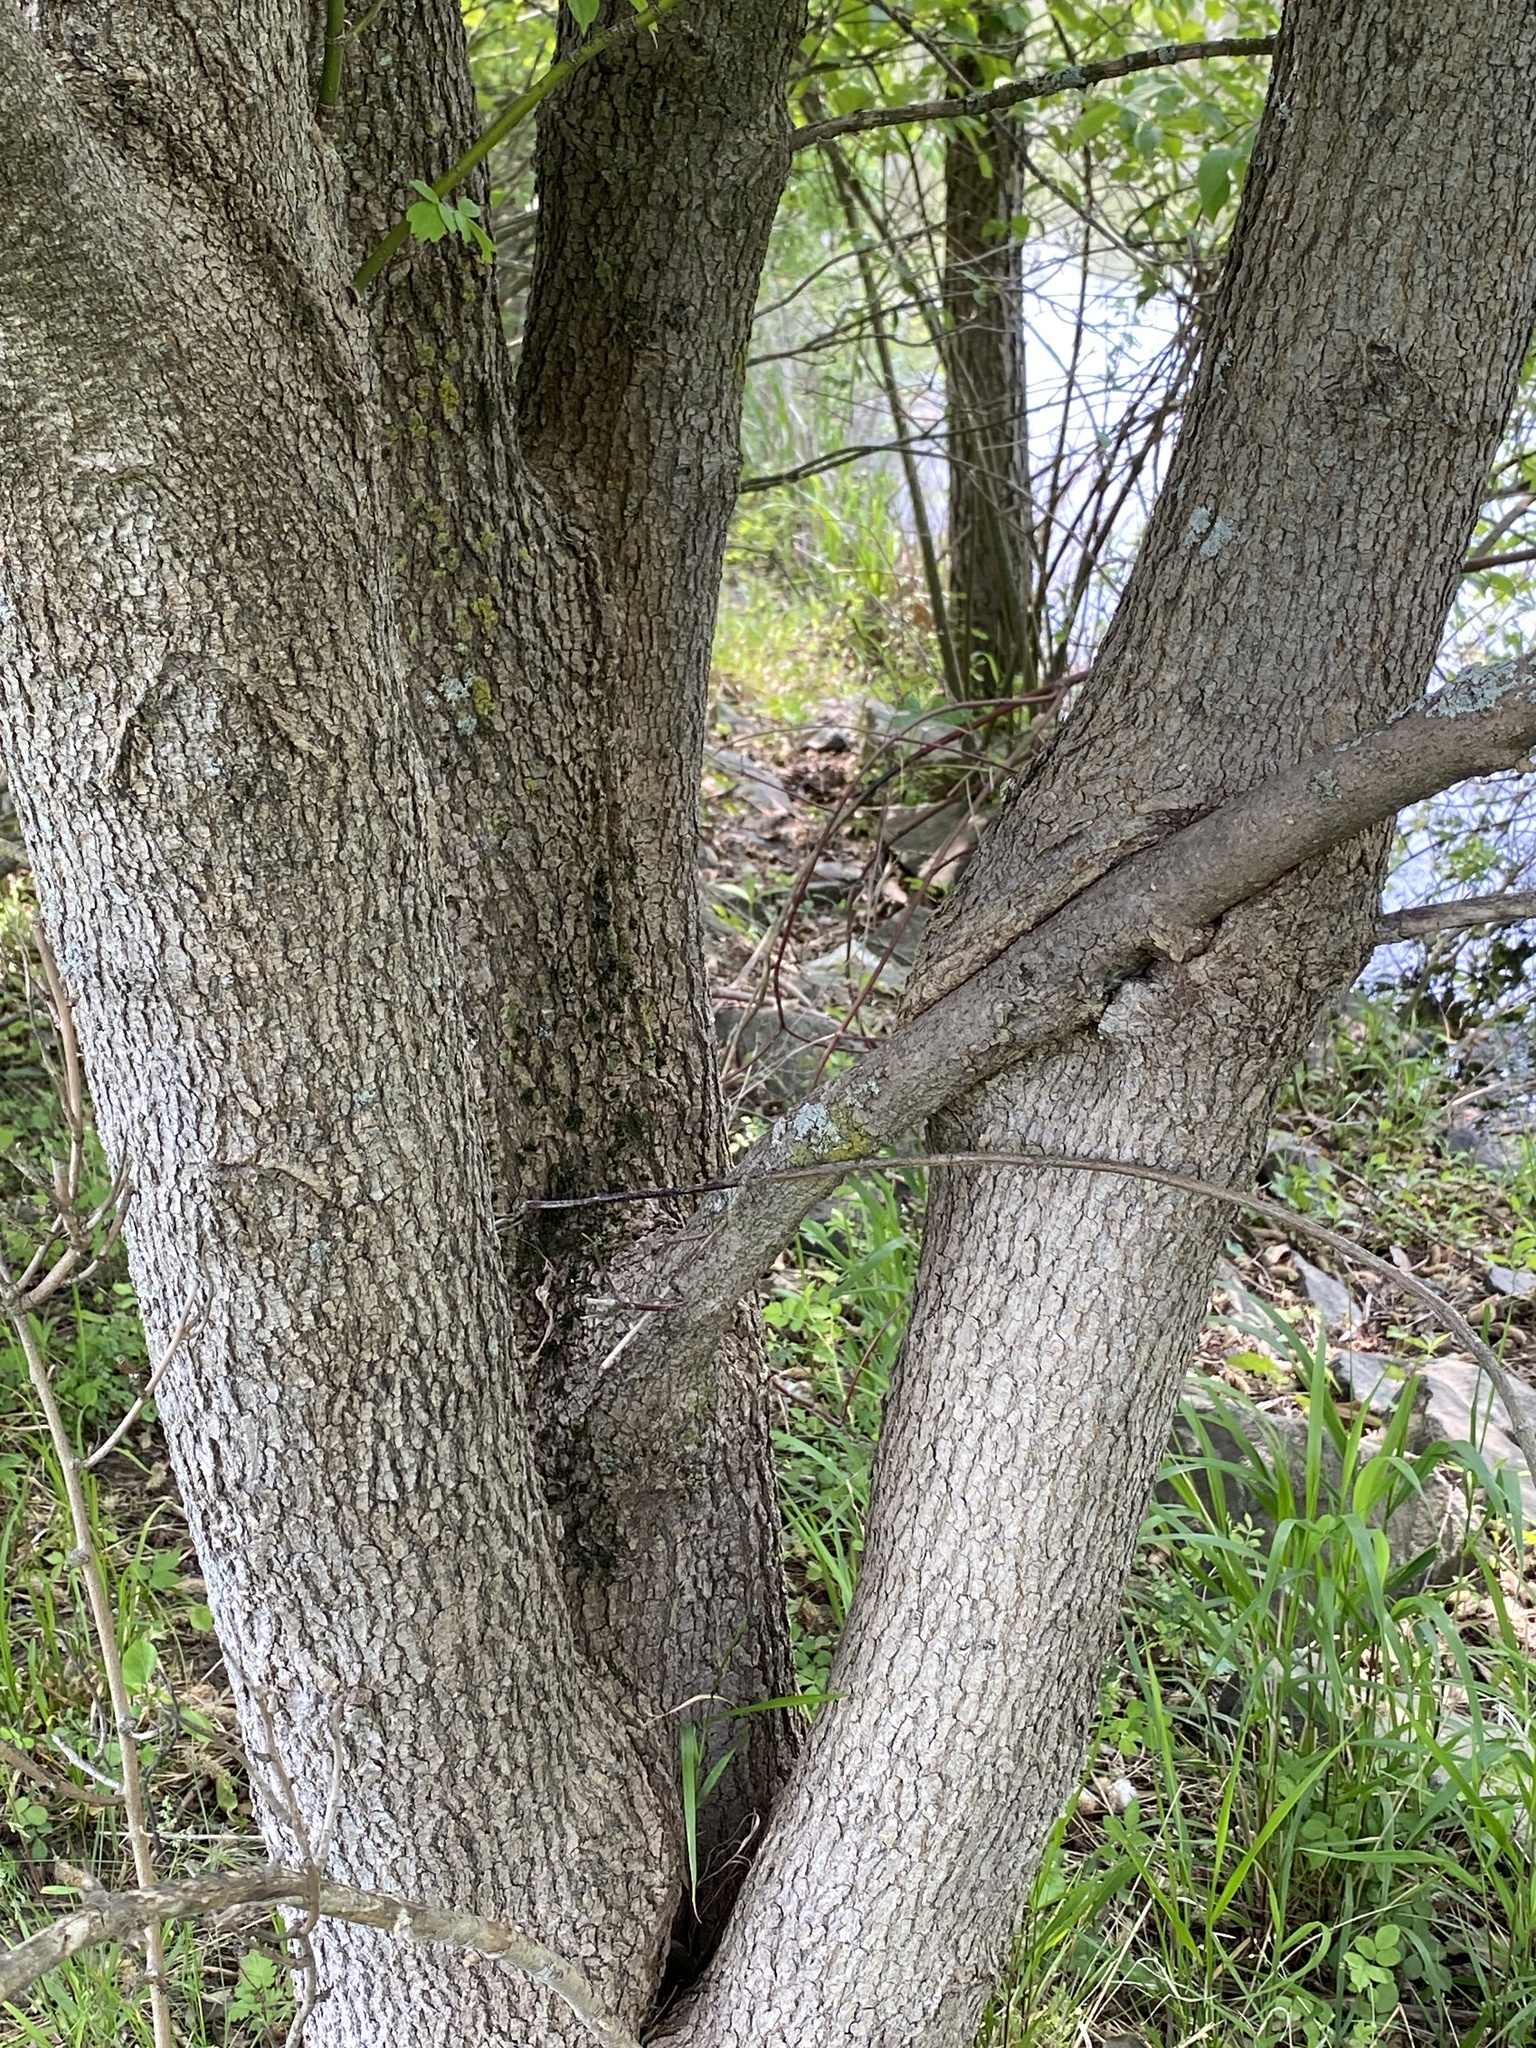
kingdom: Plantae
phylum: Tracheophyta
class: Magnoliopsida
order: Sapindales
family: Sapindaceae
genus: Acer
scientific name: Acer negundo
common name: Ashleaf maple
